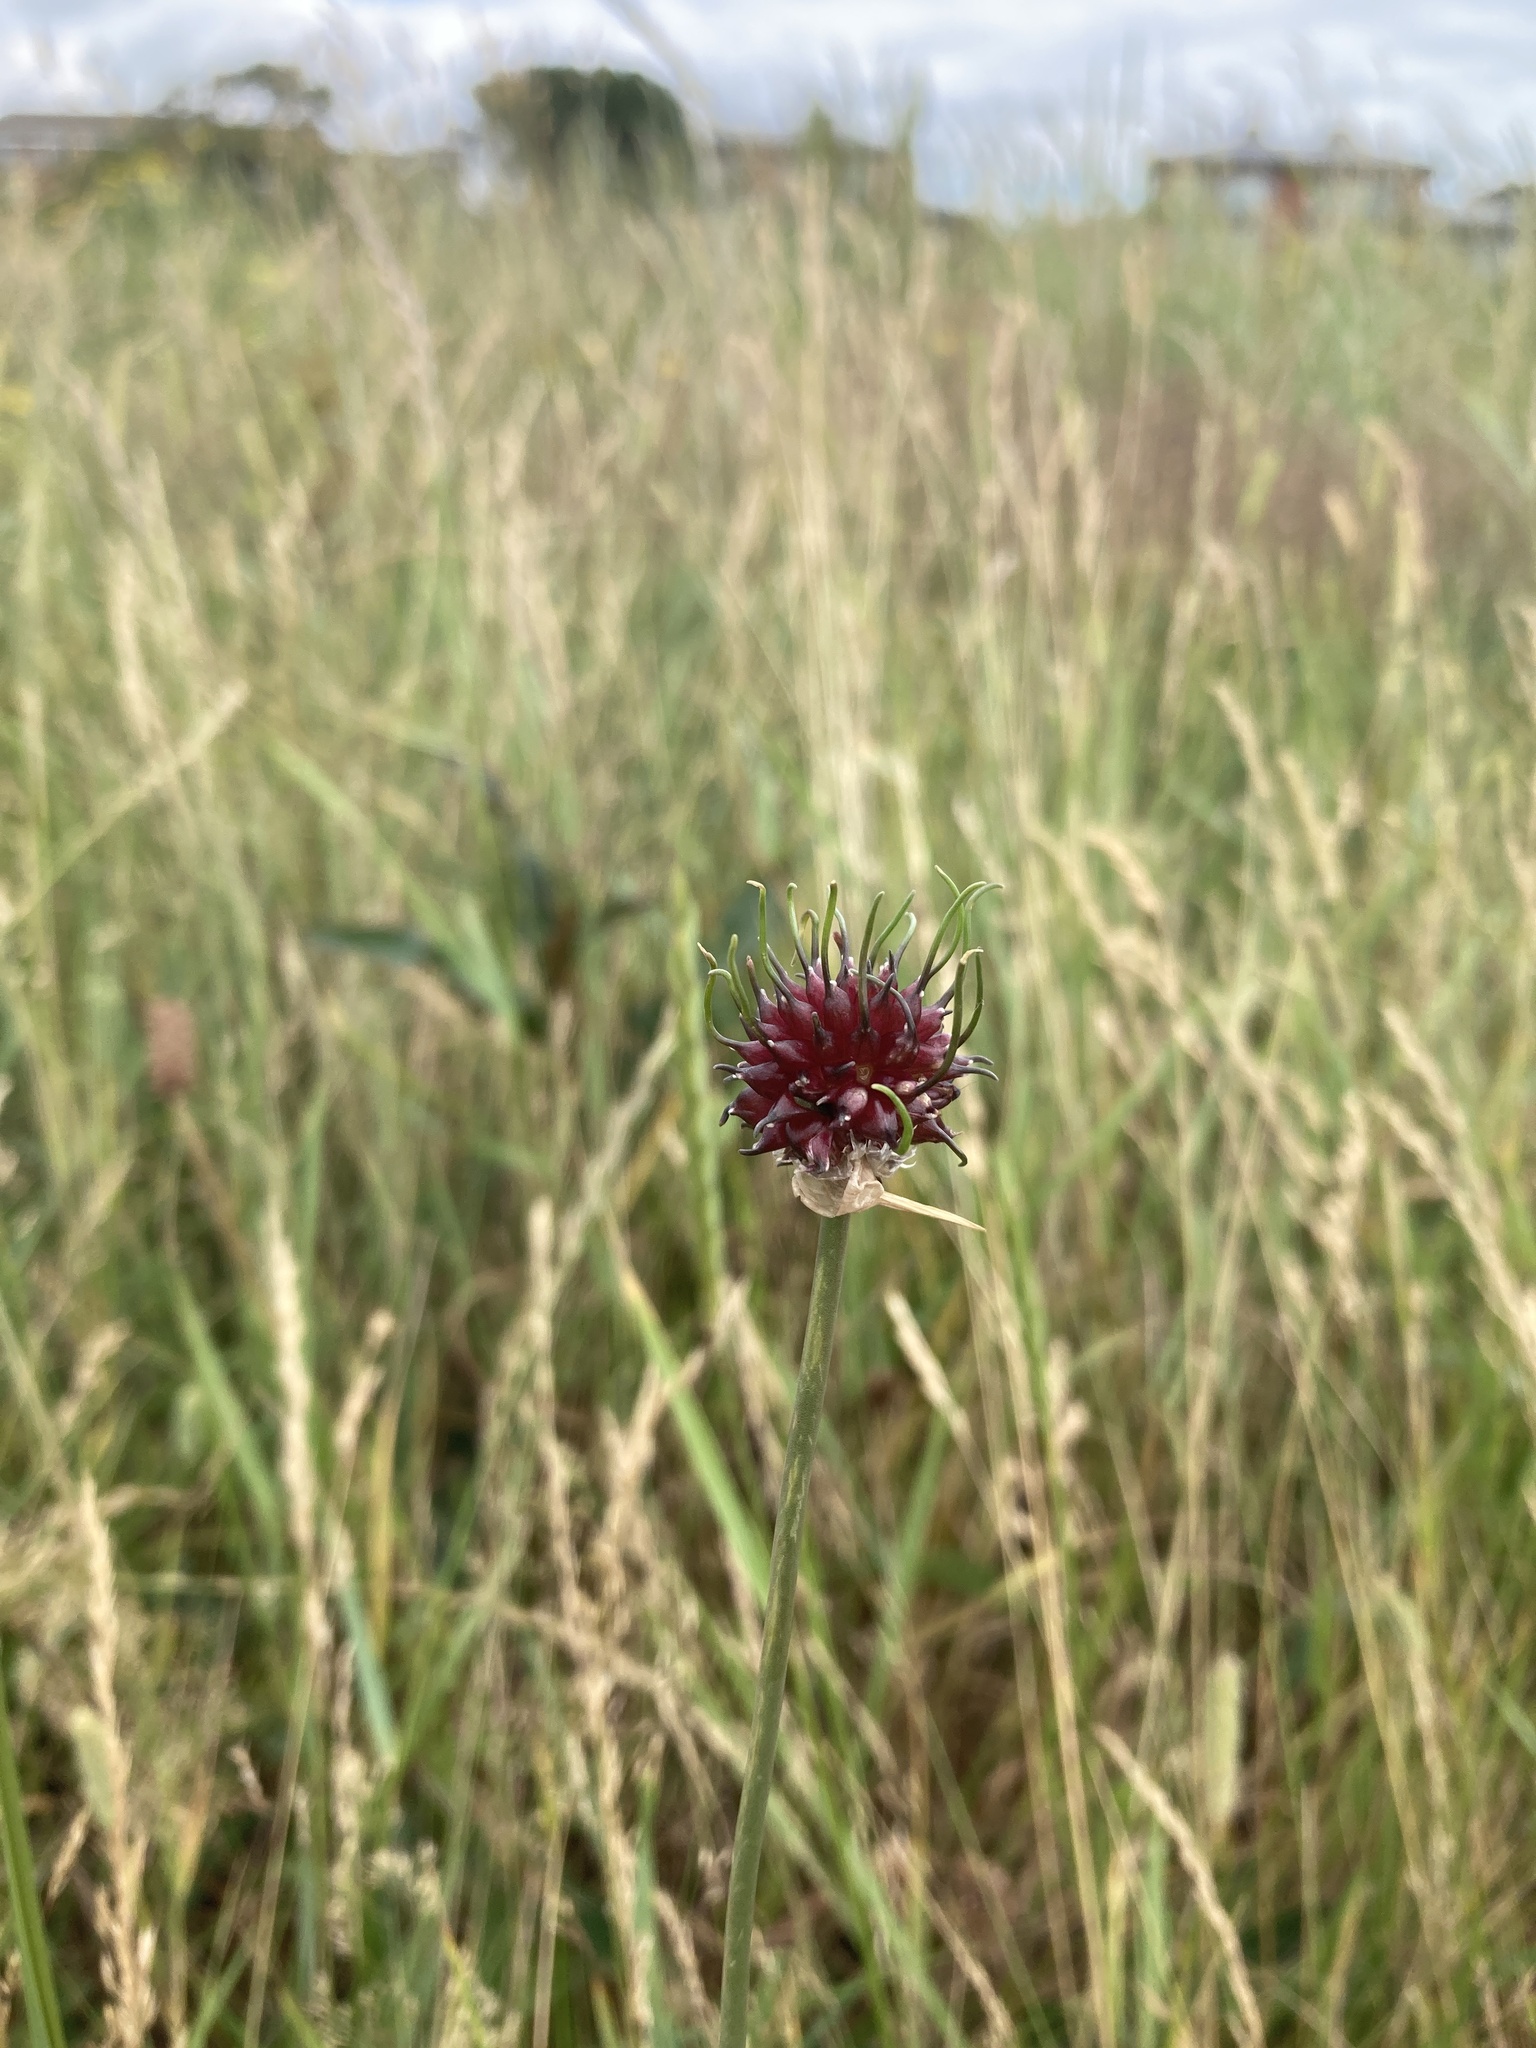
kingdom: Plantae
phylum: Tracheophyta
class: Liliopsida
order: Asparagales
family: Amaryllidaceae
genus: Allium
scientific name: Allium vineale
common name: Crow garlic
